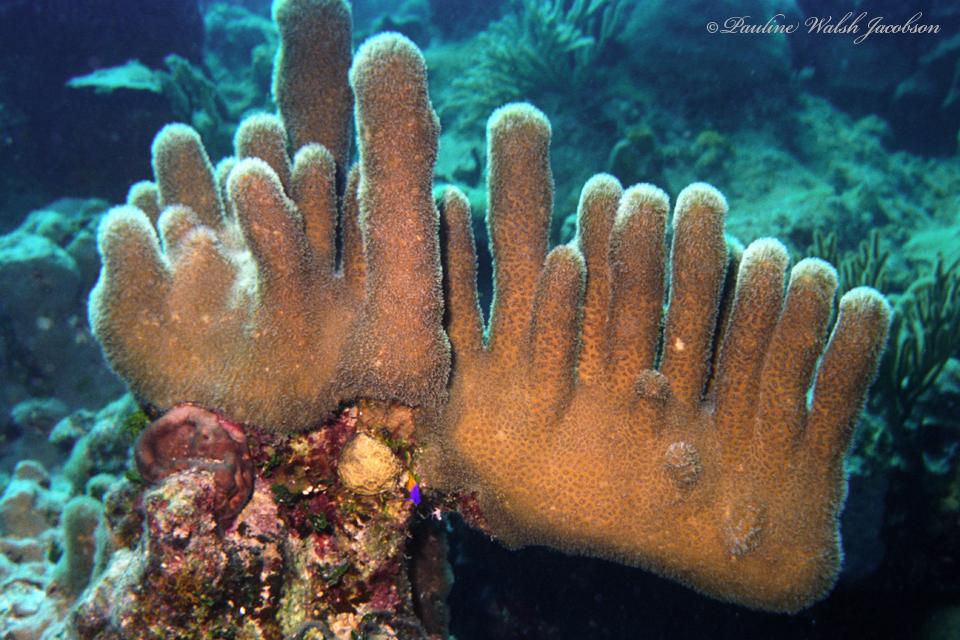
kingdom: Animalia
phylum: Cnidaria
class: Anthozoa
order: Scleractinia
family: Meandrinidae
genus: Dendrogyra
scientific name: Dendrogyra cylindrus
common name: Pillar coral
